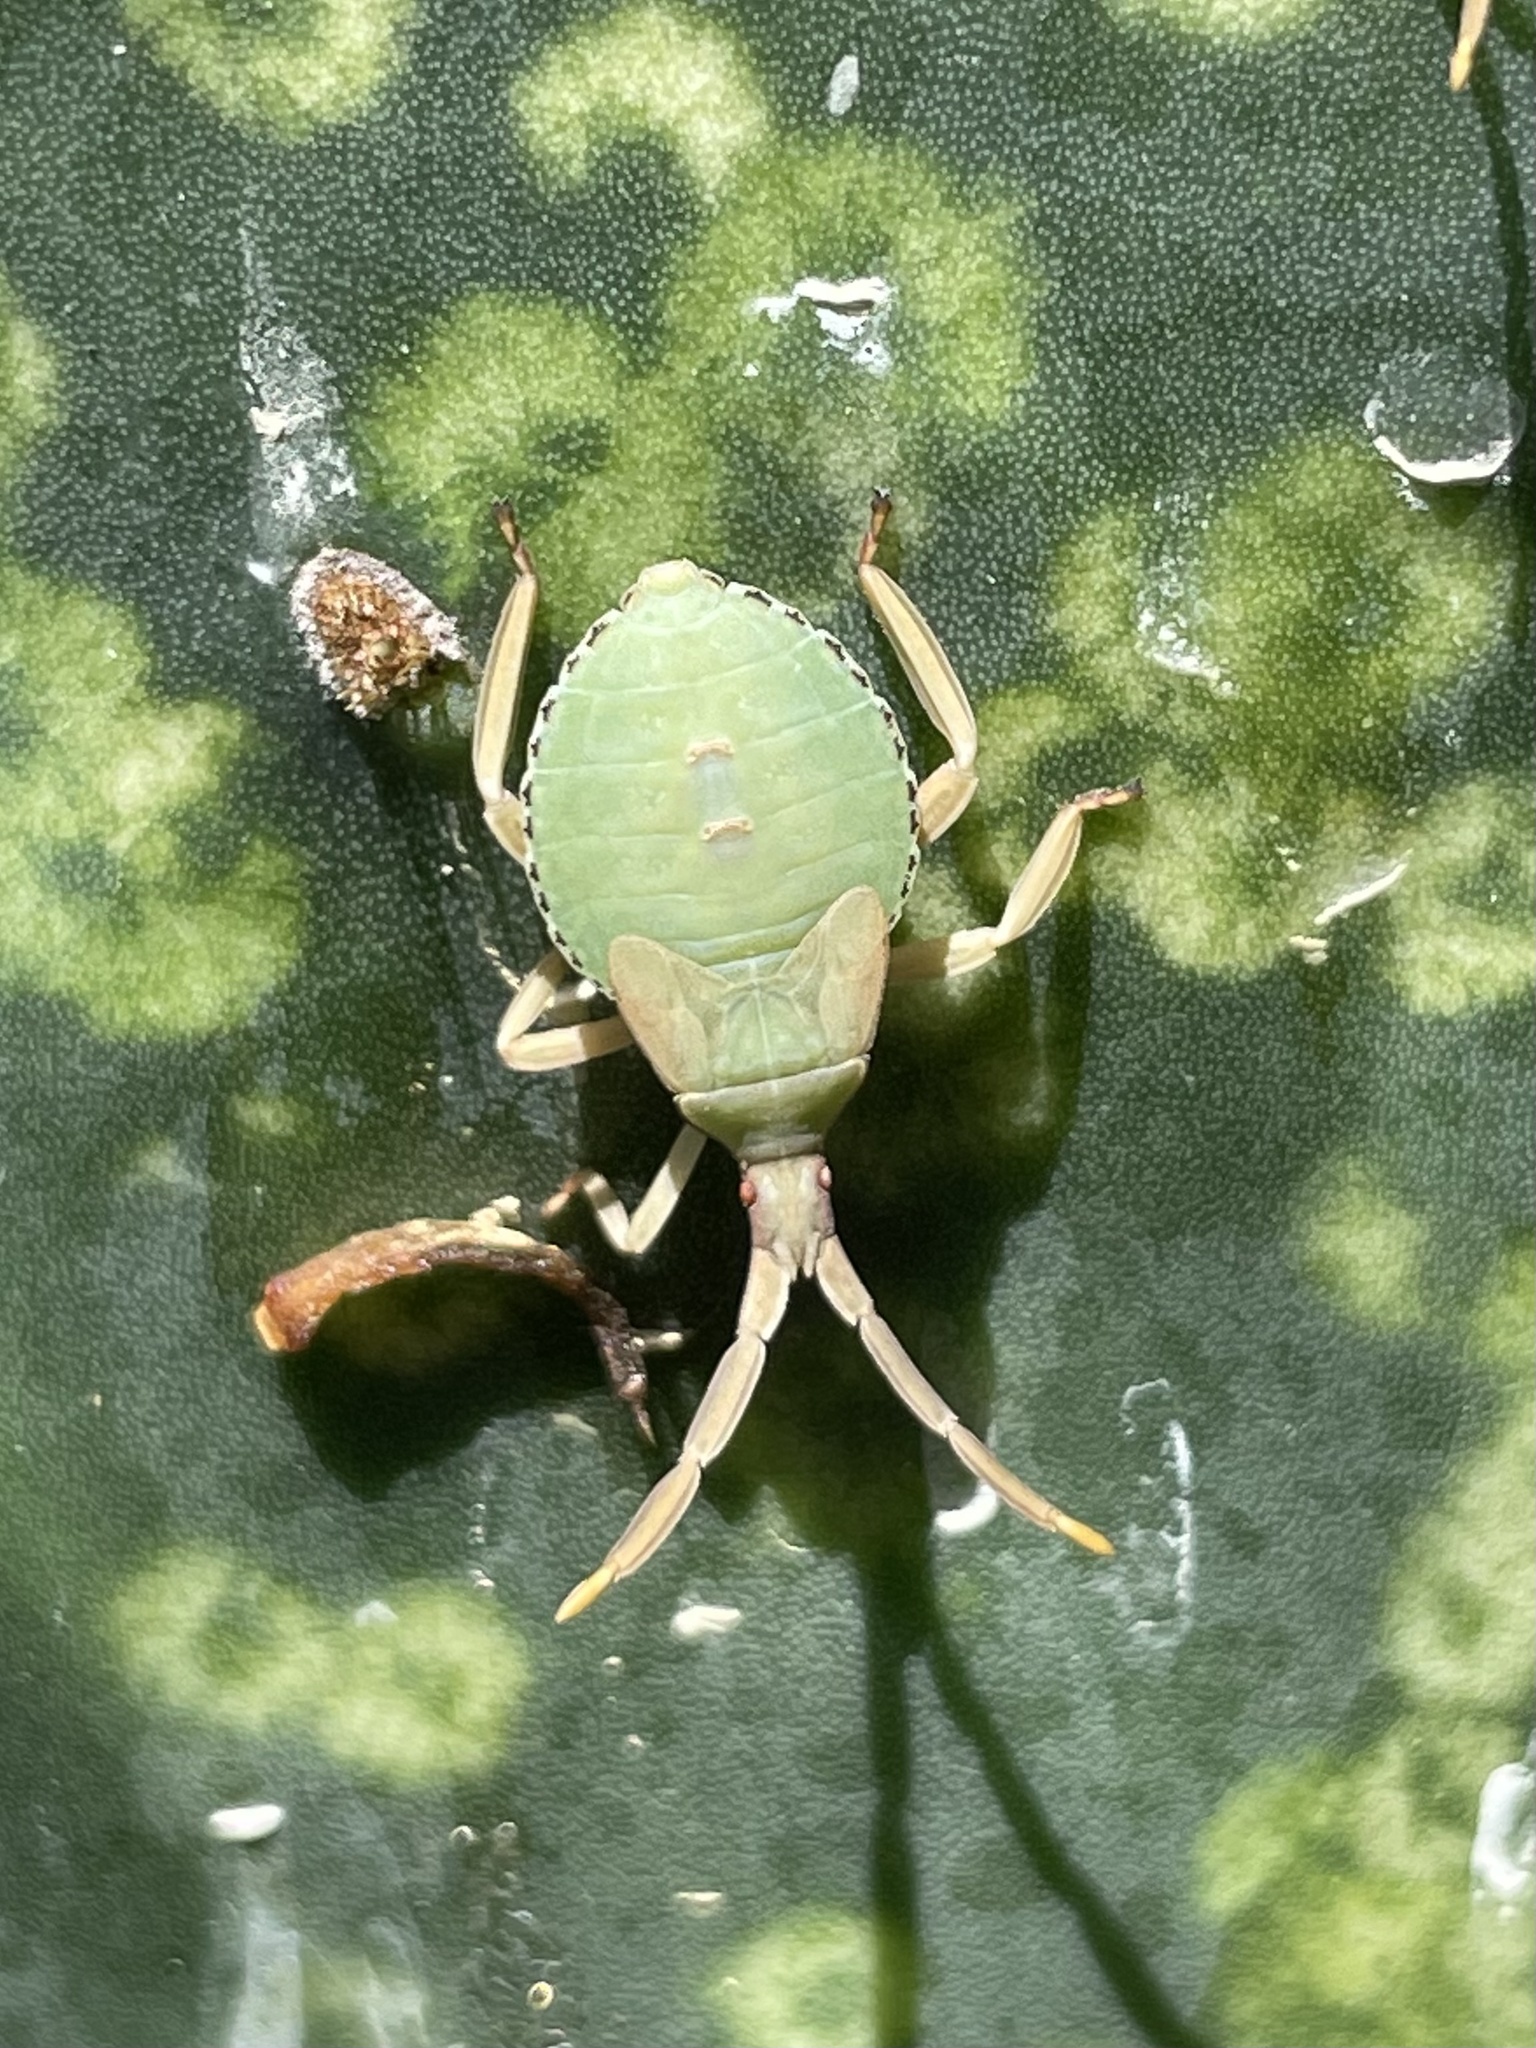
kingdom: Animalia
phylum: Arthropoda
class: Insecta
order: Hemiptera
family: Coreidae
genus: Chelinidea
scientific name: Chelinidea tabulata
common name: Prickly pear bug
